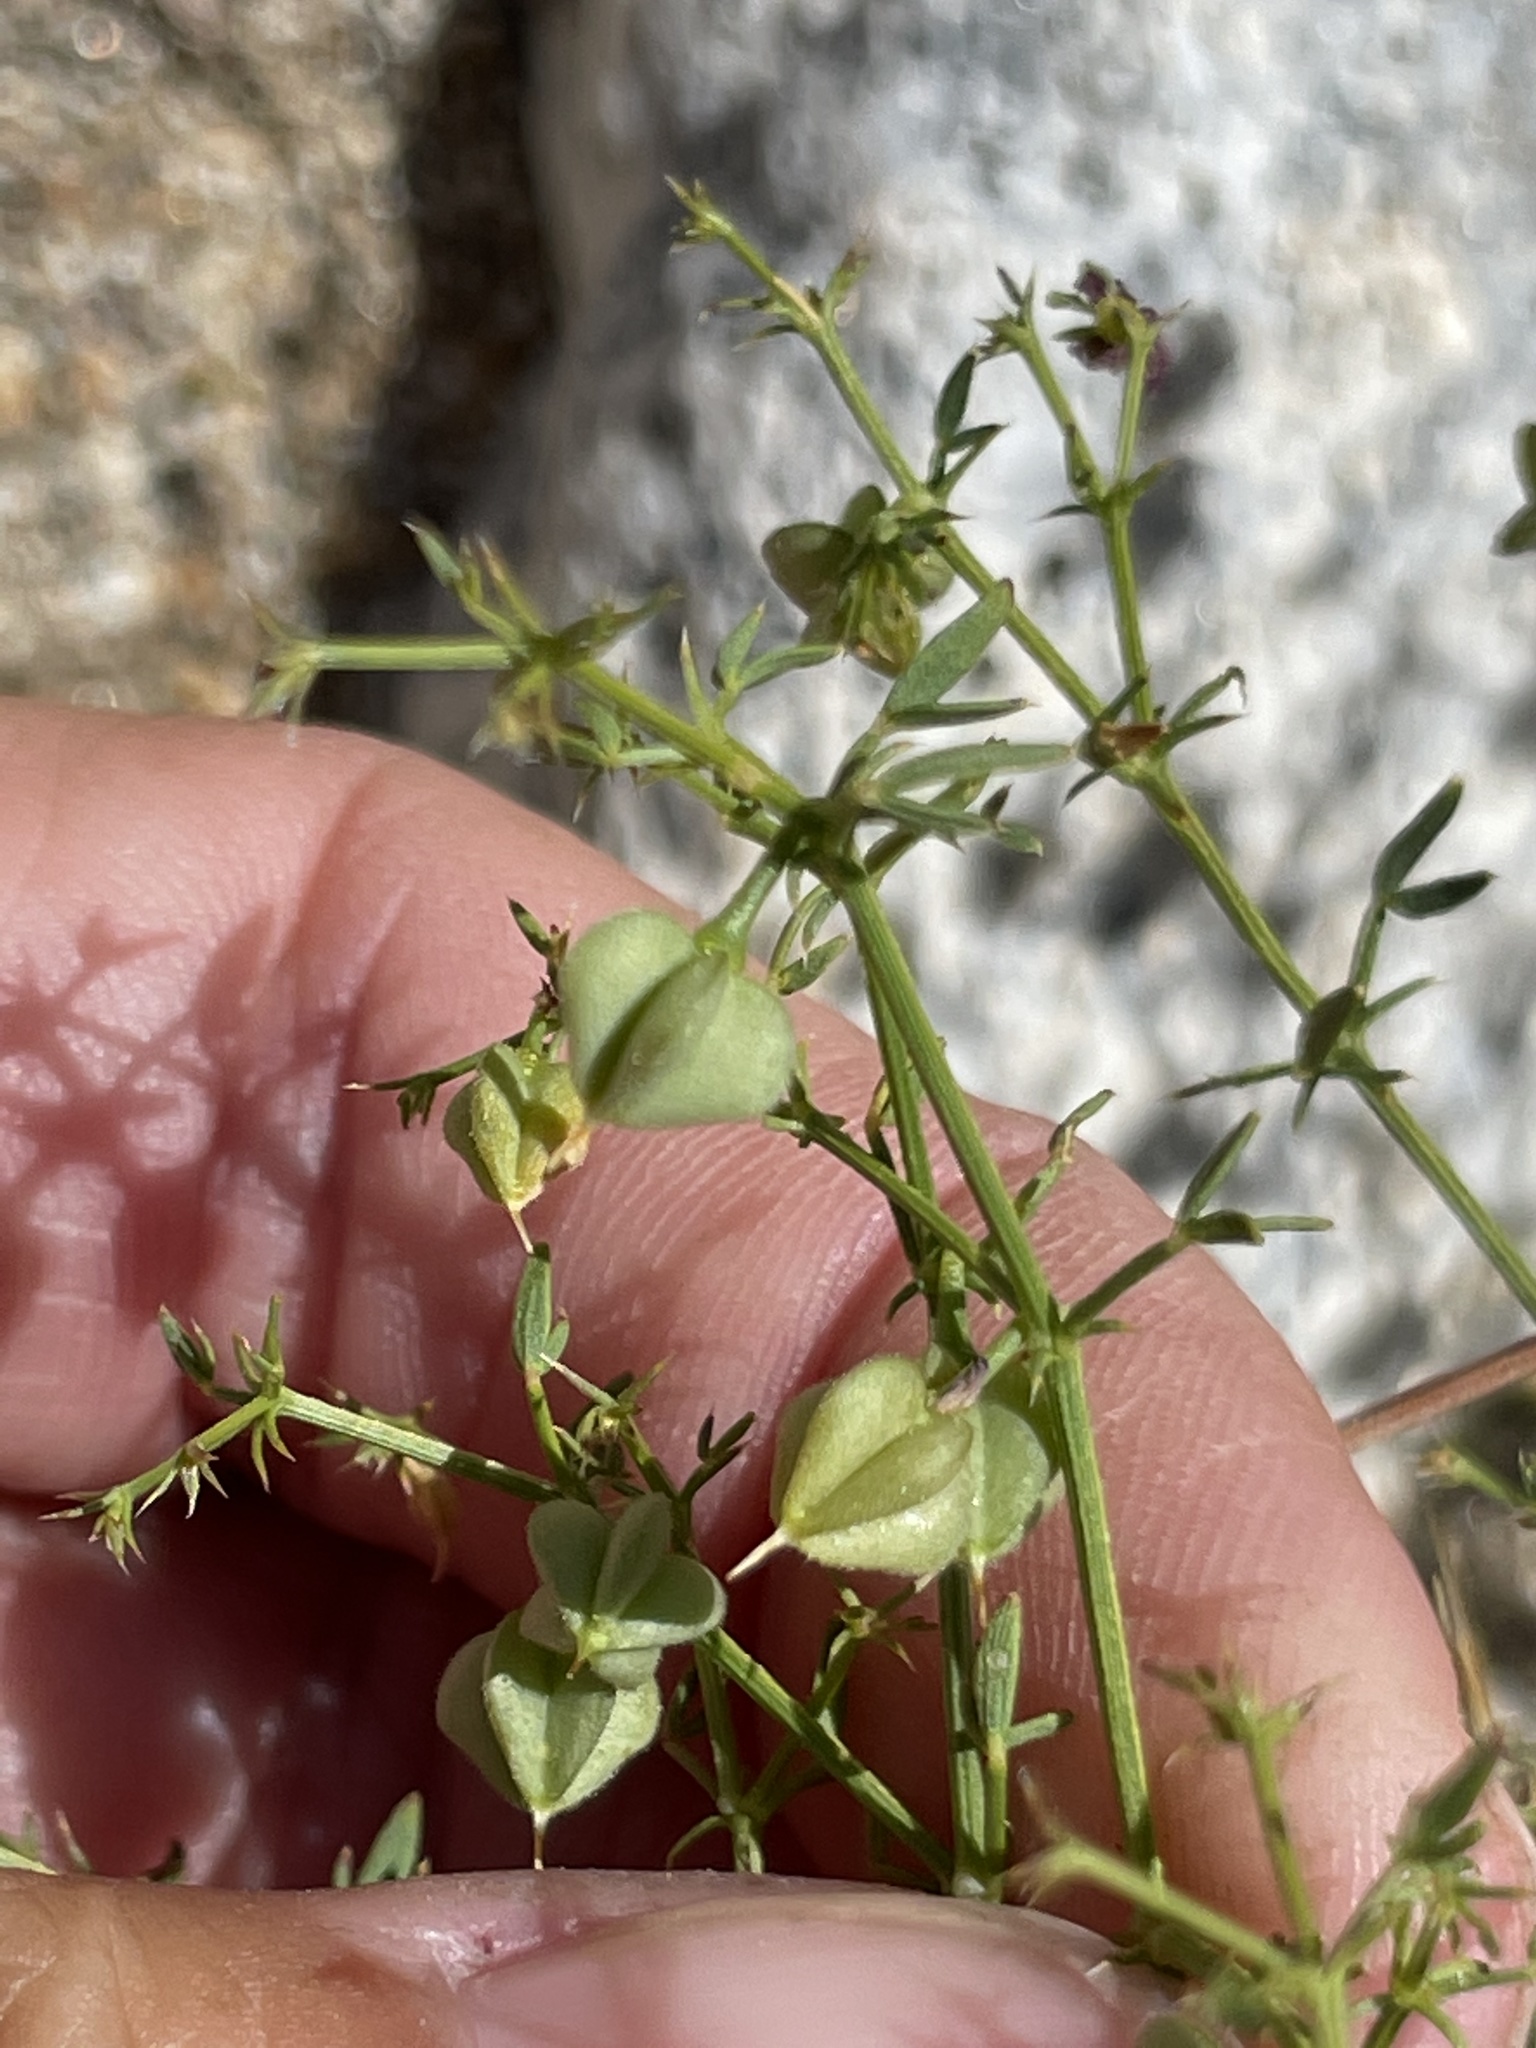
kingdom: Plantae
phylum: Tracheophyta
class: Magnoliopsida
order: Zygophyllales
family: Zygophyllaceae
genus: Fagonia
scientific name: Fagonia laevis
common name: California fagonbush
